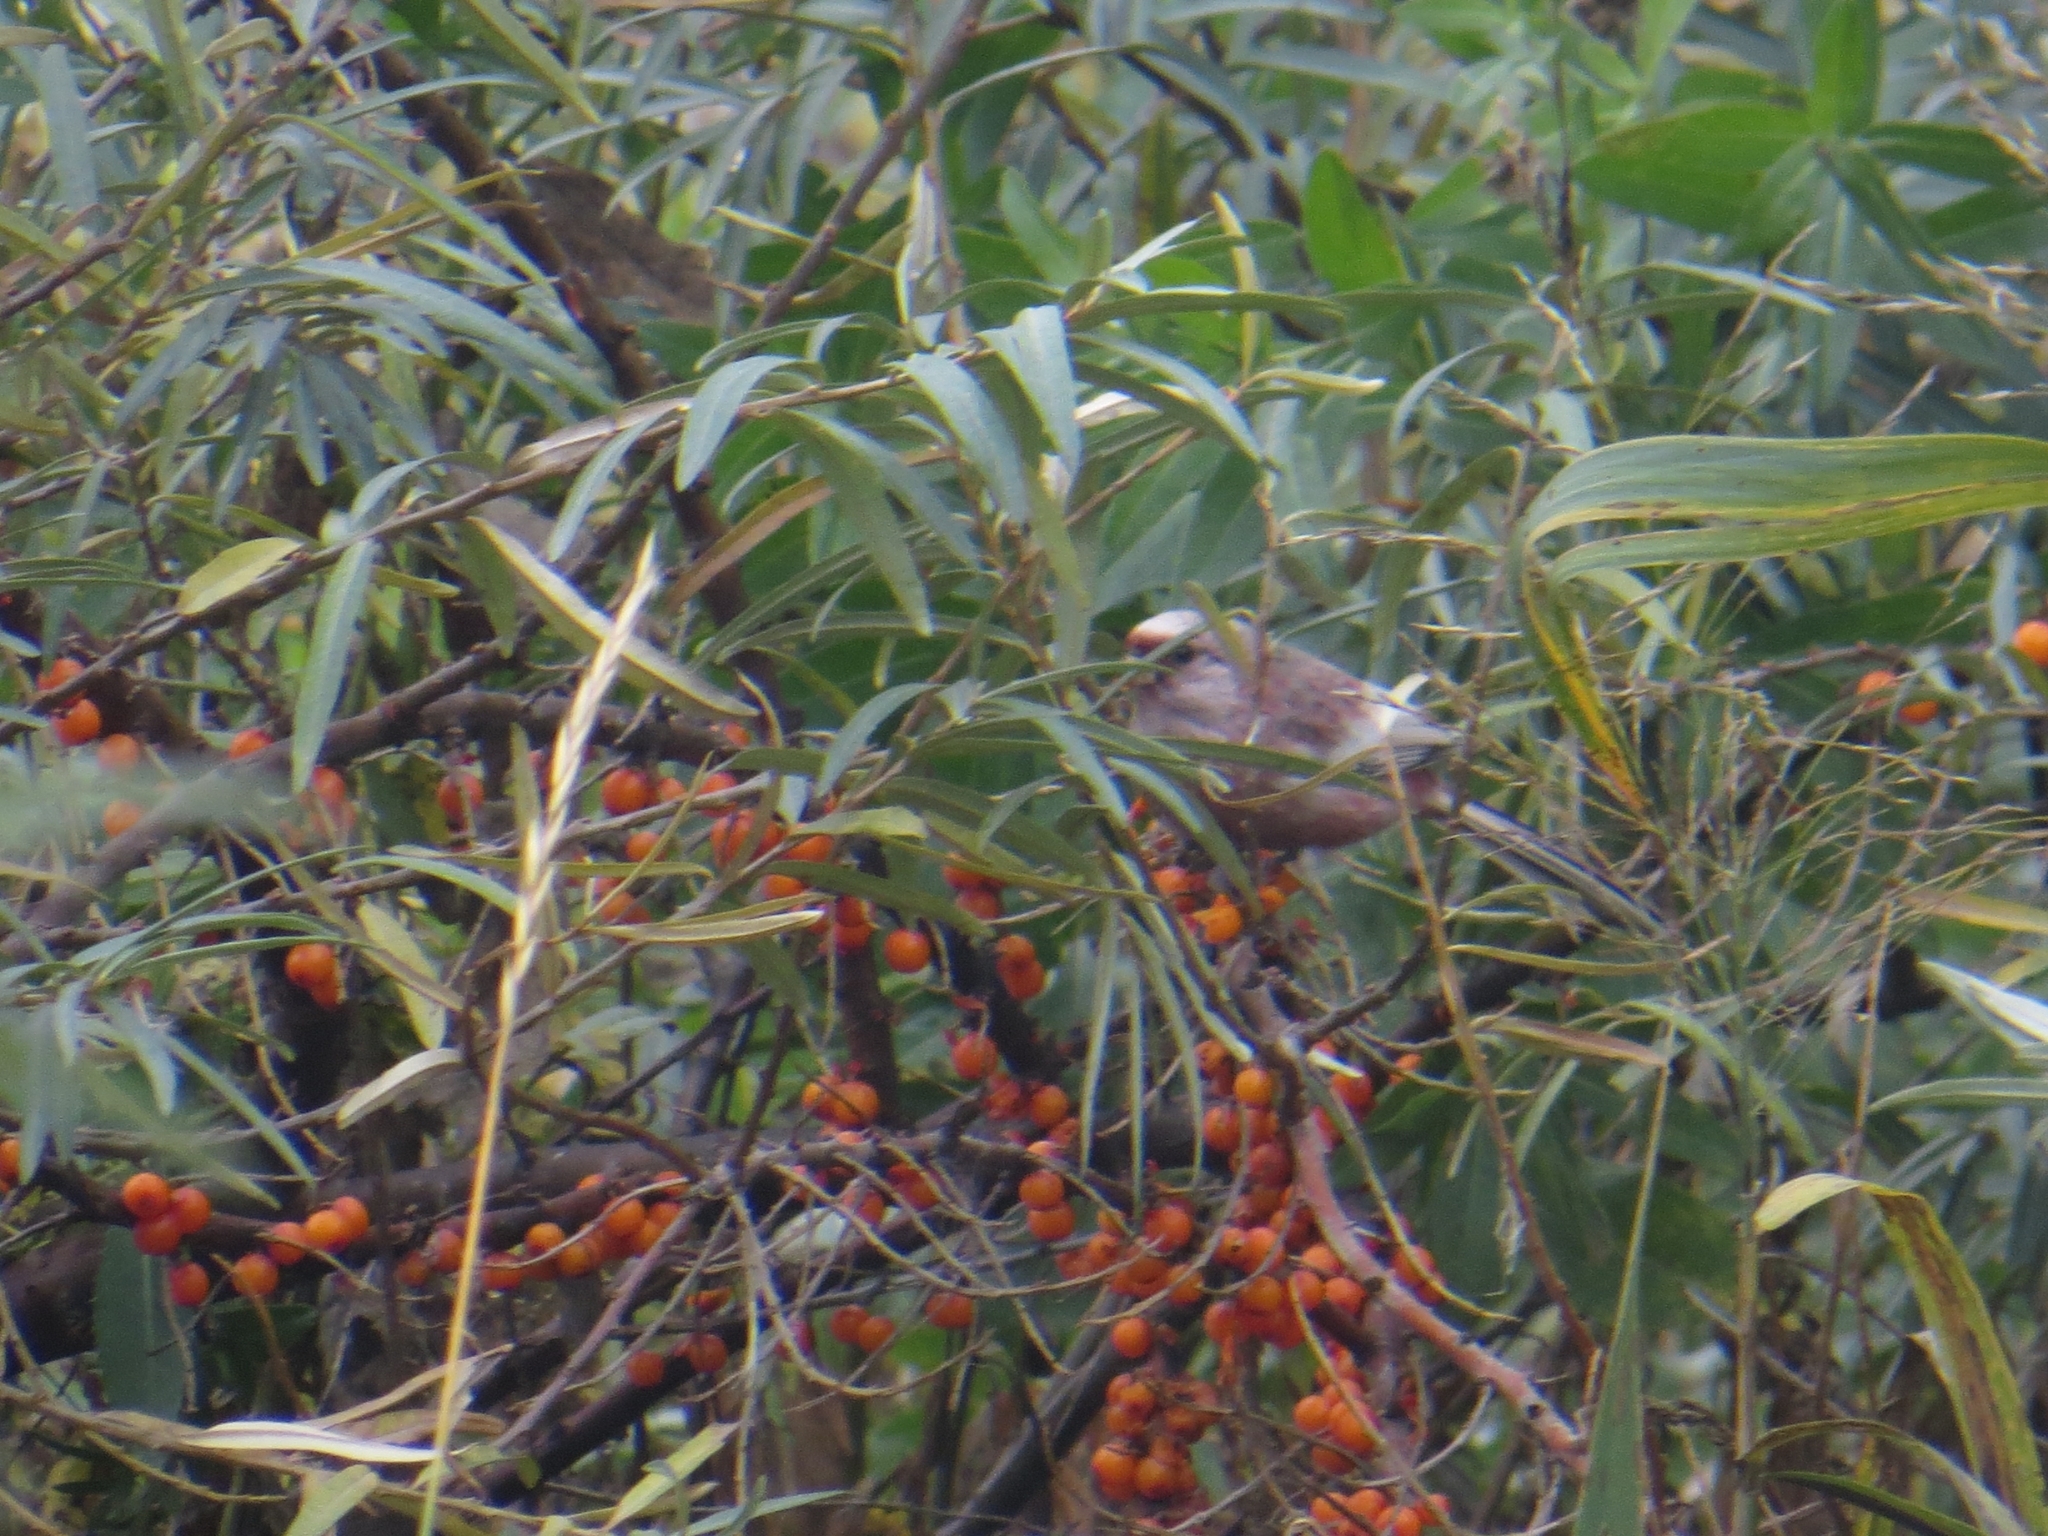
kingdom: Animalia
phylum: Chordata
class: Aves
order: Passeriformes
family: Fringillidae
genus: Carpodacus
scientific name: Carpodacus sibiricus
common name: Long-tailed rosefinch
